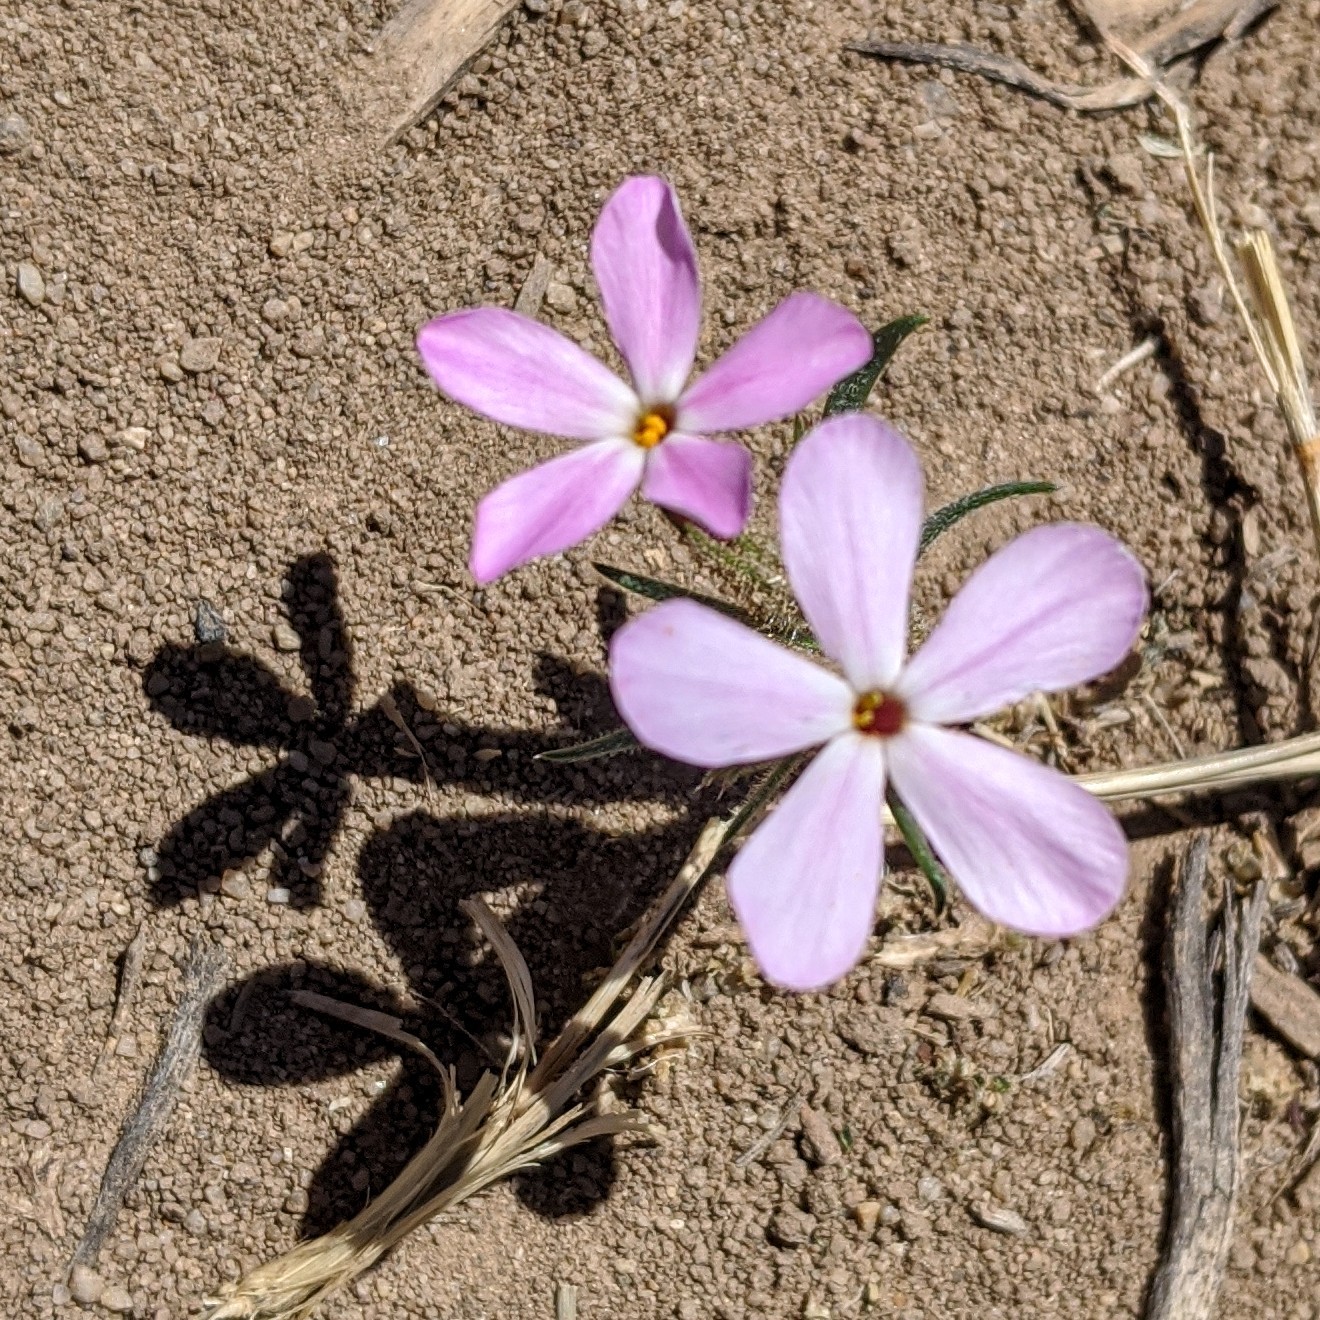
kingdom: Plantae
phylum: Tracheophyta
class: Magnoliopsida
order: Ericales
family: Polemoniaceae
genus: Phlox
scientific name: Phlox longifolia
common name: Longleaf phlox
